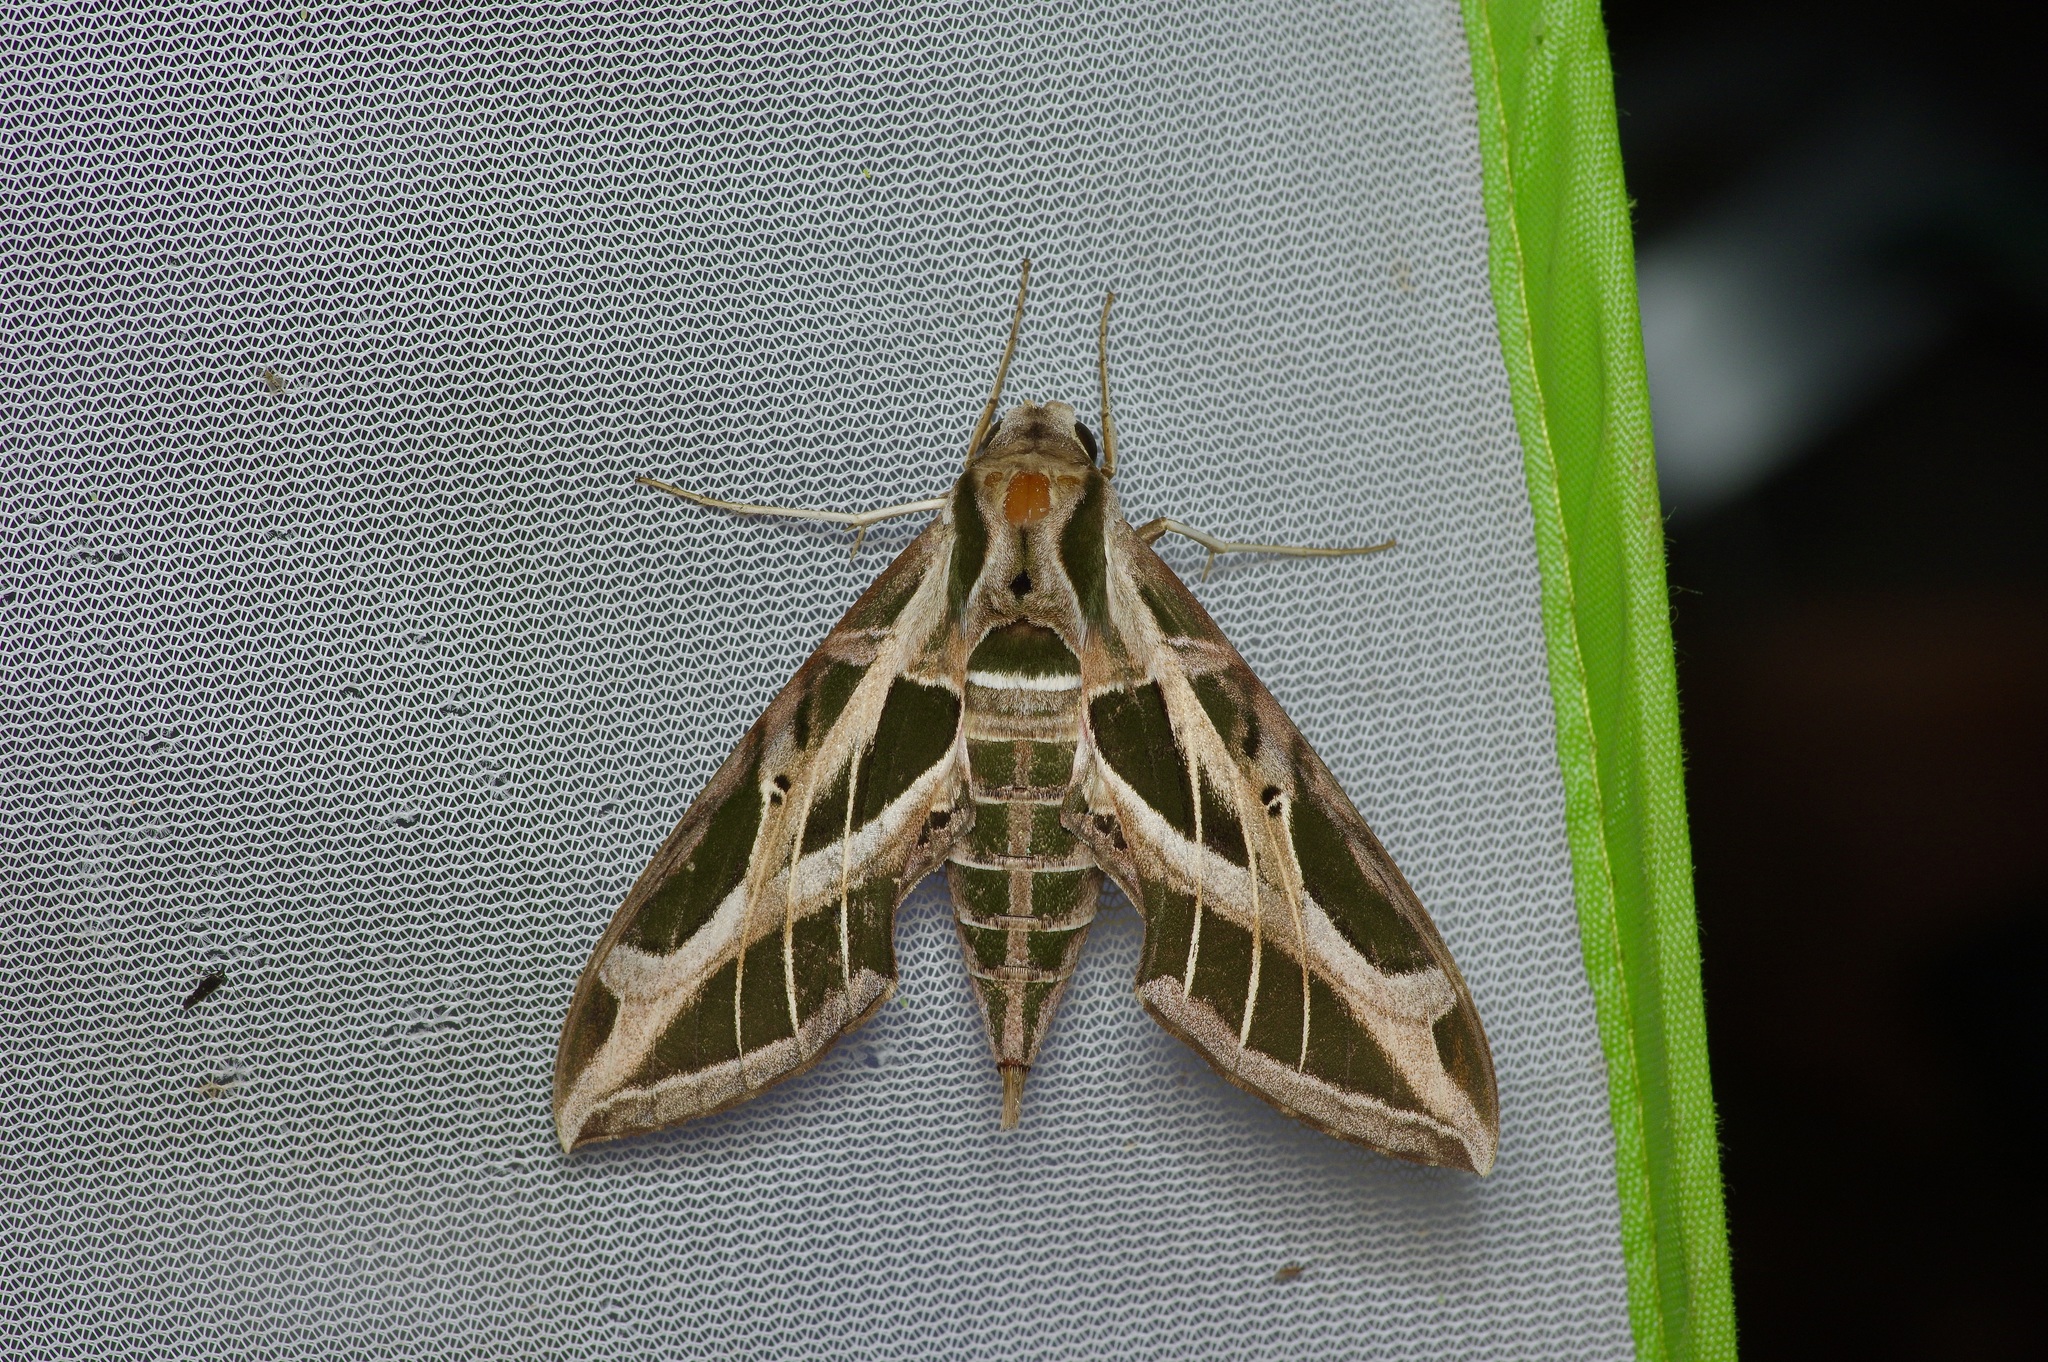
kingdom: Animalia
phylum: Arthropoda
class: Insecta
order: Lepidoptera
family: Sphingidae
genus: Eumorpha
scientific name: Eumorpha vitis
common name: Vine sphinx
